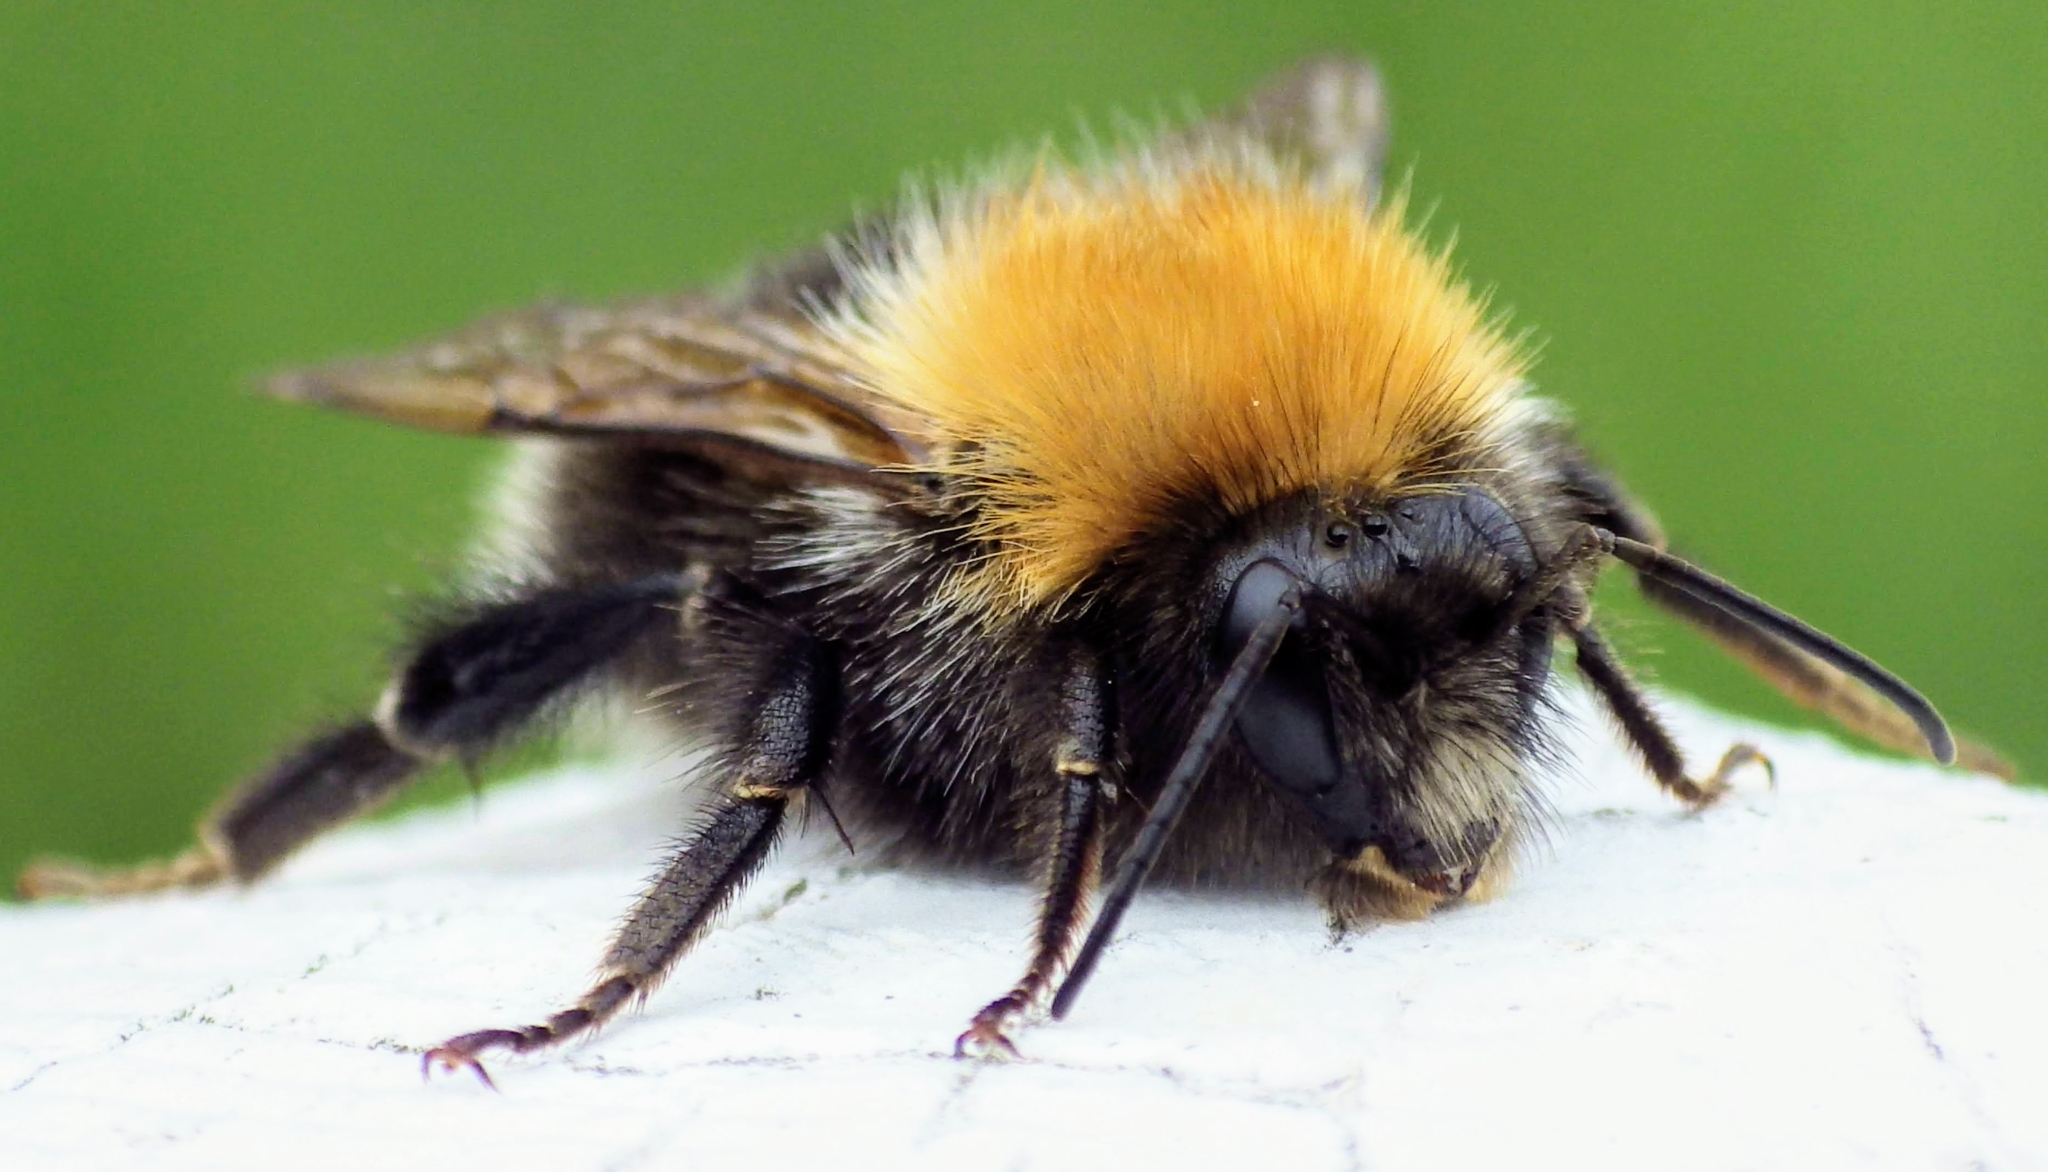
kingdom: Animalia
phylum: Arthropoda
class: Insecta
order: Hymenoptera
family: Apidae
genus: Bombus
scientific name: Bombus hypnorum
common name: New garden bumblebee
